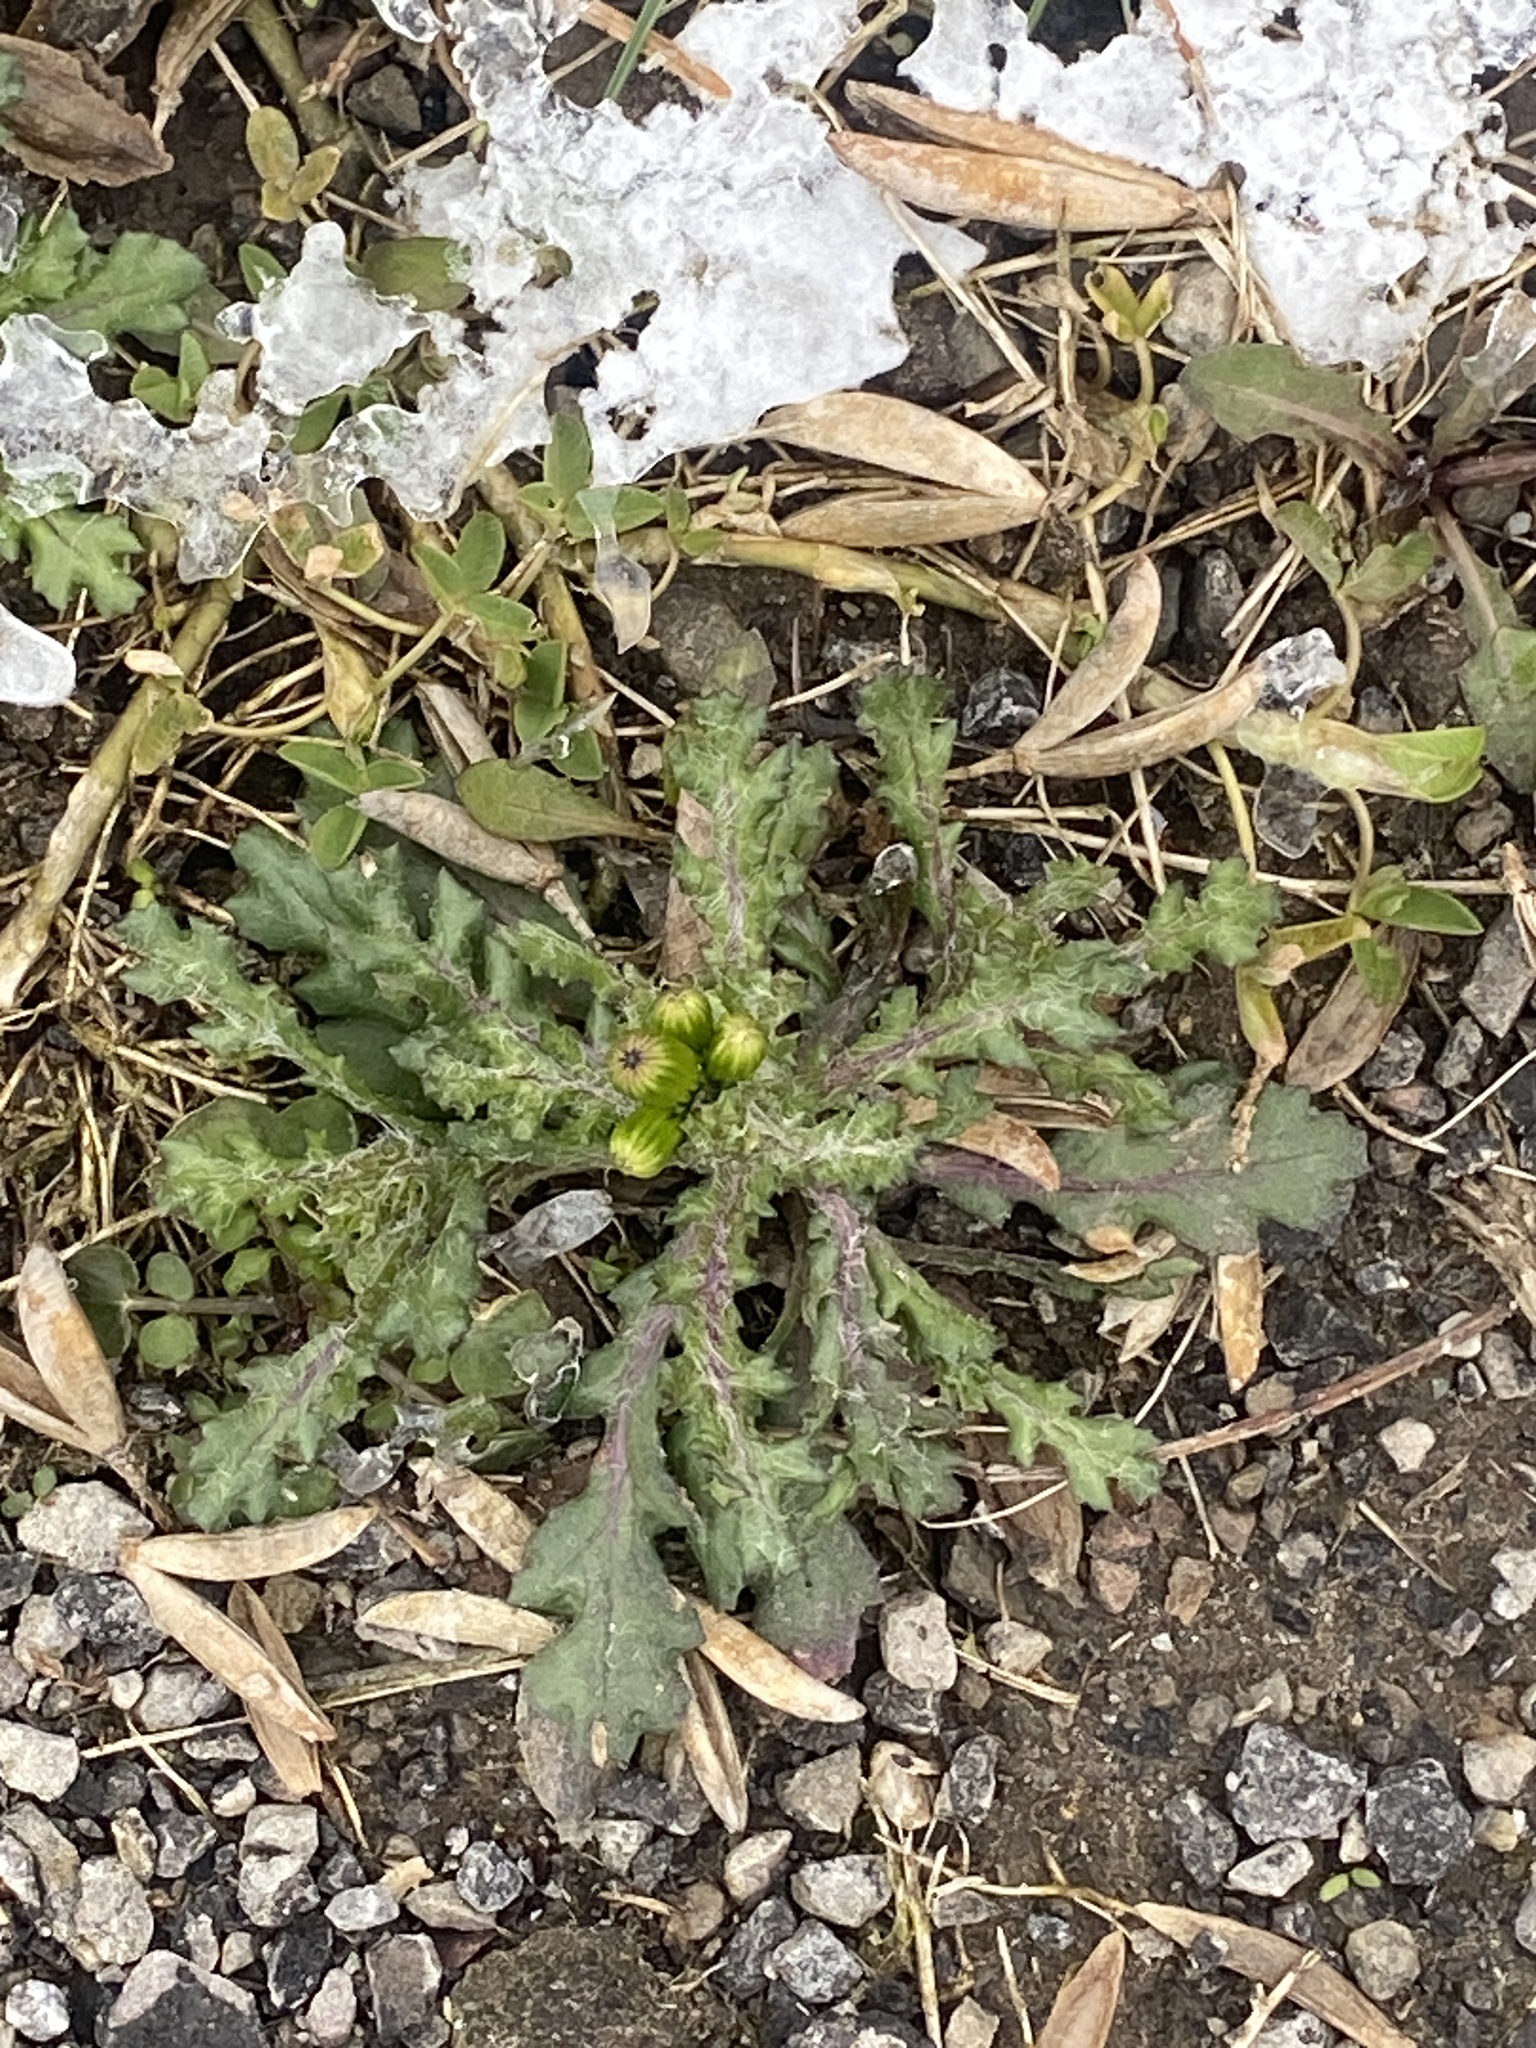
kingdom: Plantae
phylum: Tracheophyta
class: Magnoliopsida
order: Asterales
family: Asteraceae
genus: Senecio
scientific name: Senecio vulgaris
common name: Old-man-in-the-spring
